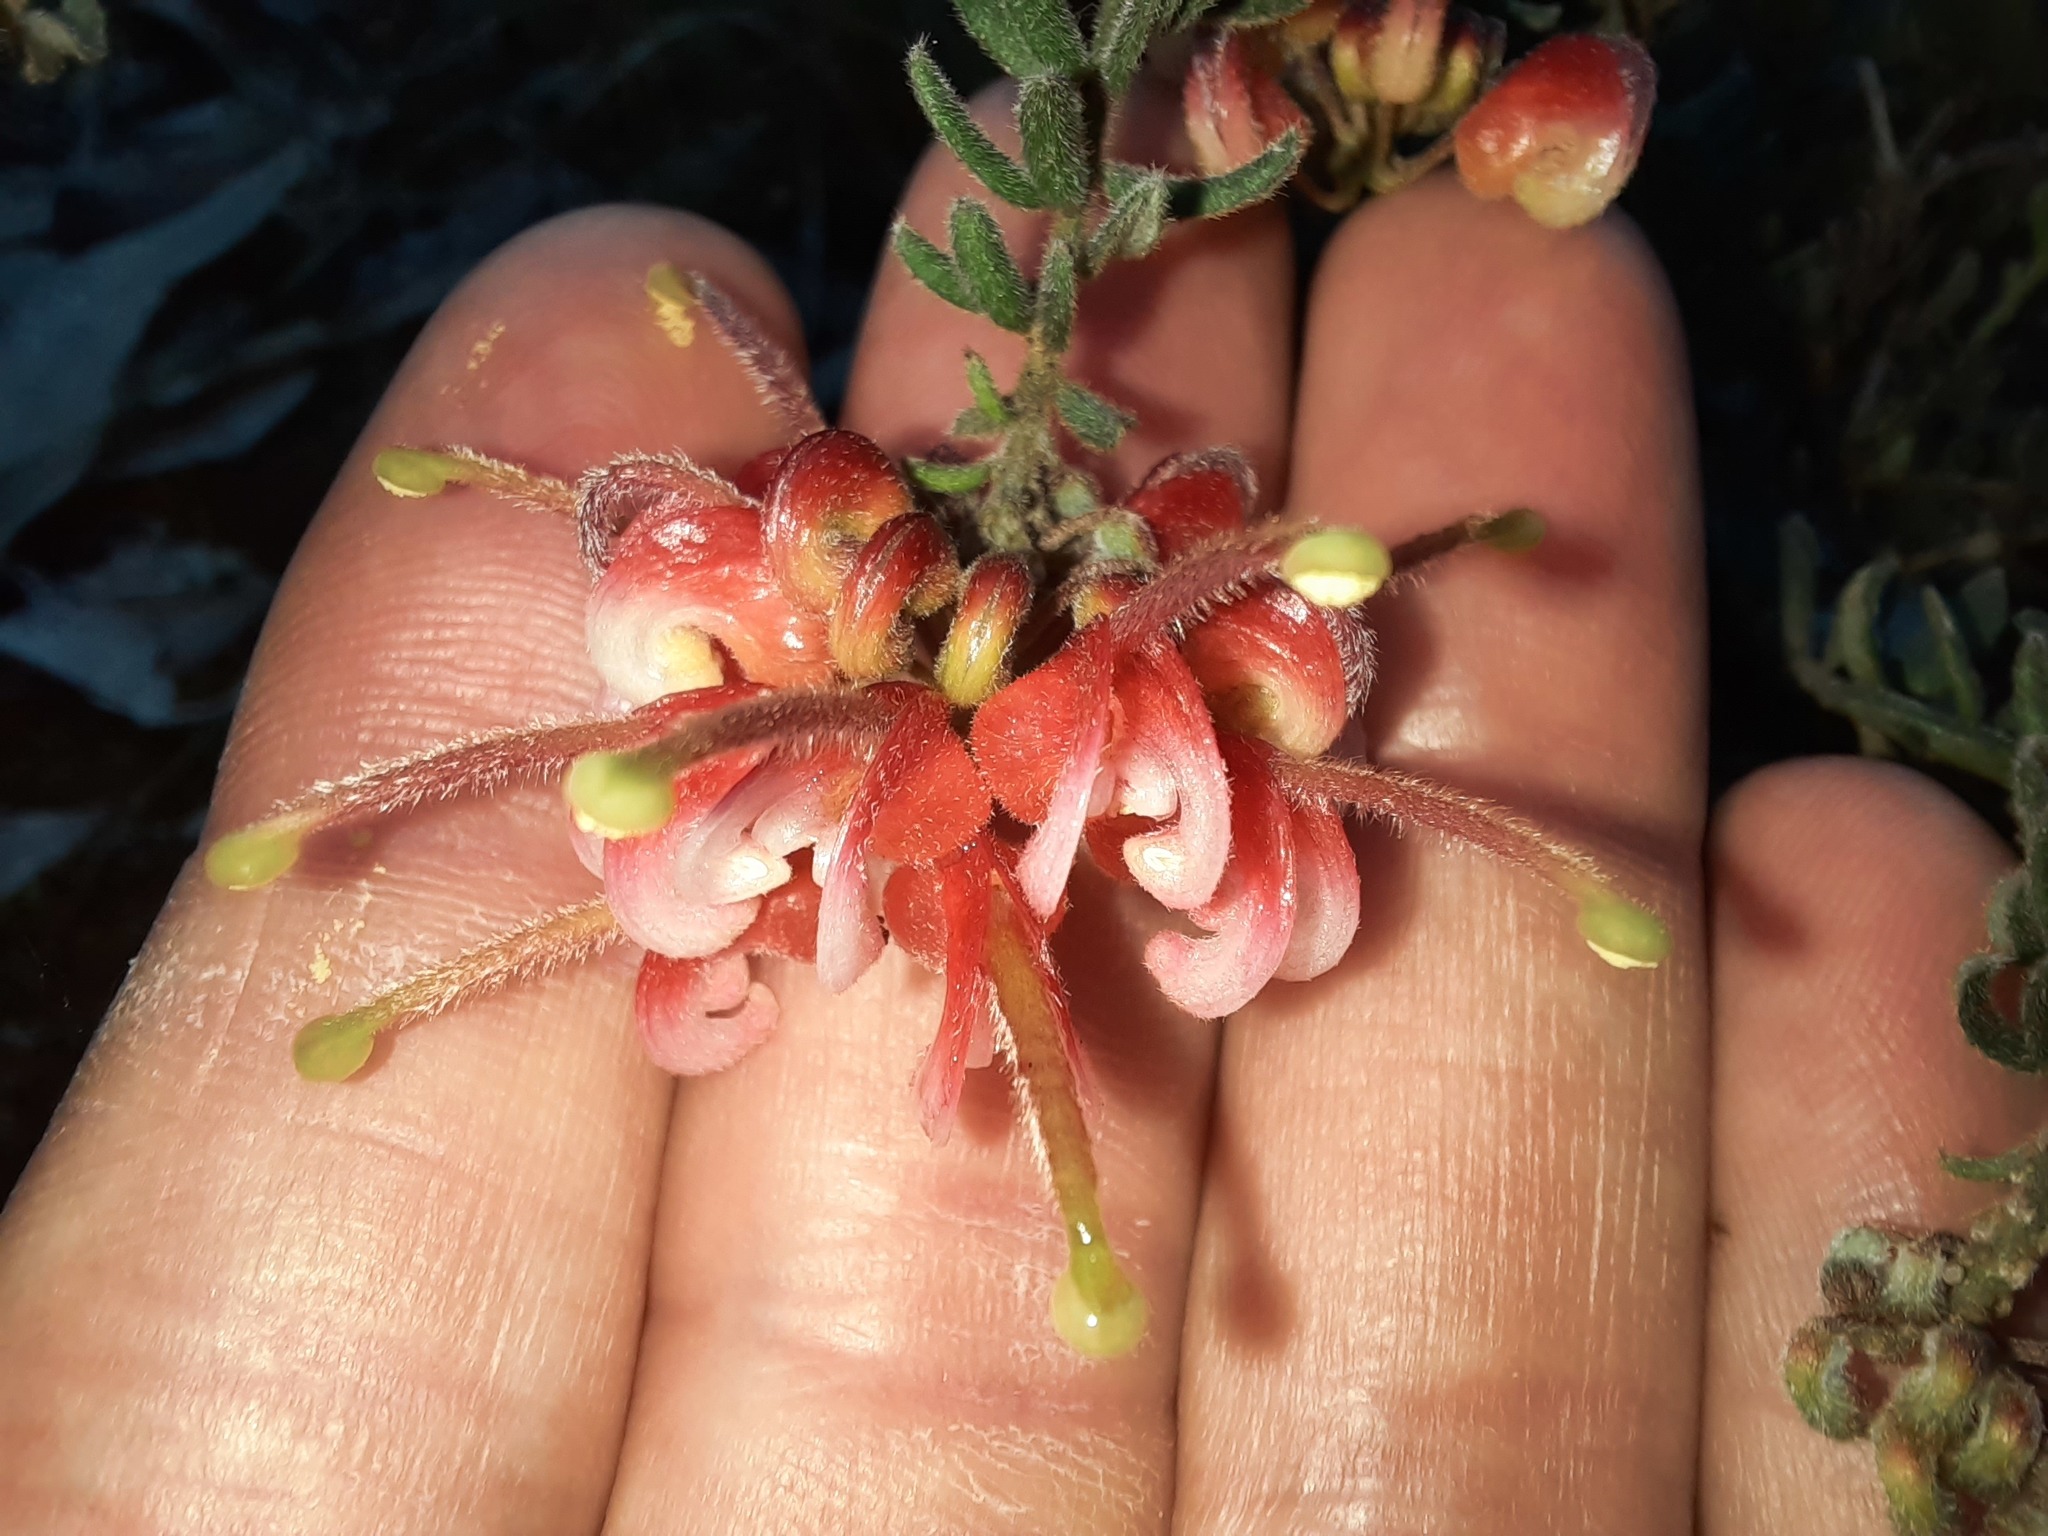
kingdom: Plantae
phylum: Tracheophyta
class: Magnoliopsida
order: Proteales
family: Proteaceae
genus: Grevillea
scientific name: Grevillea alpina
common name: Catclaws grevillea
